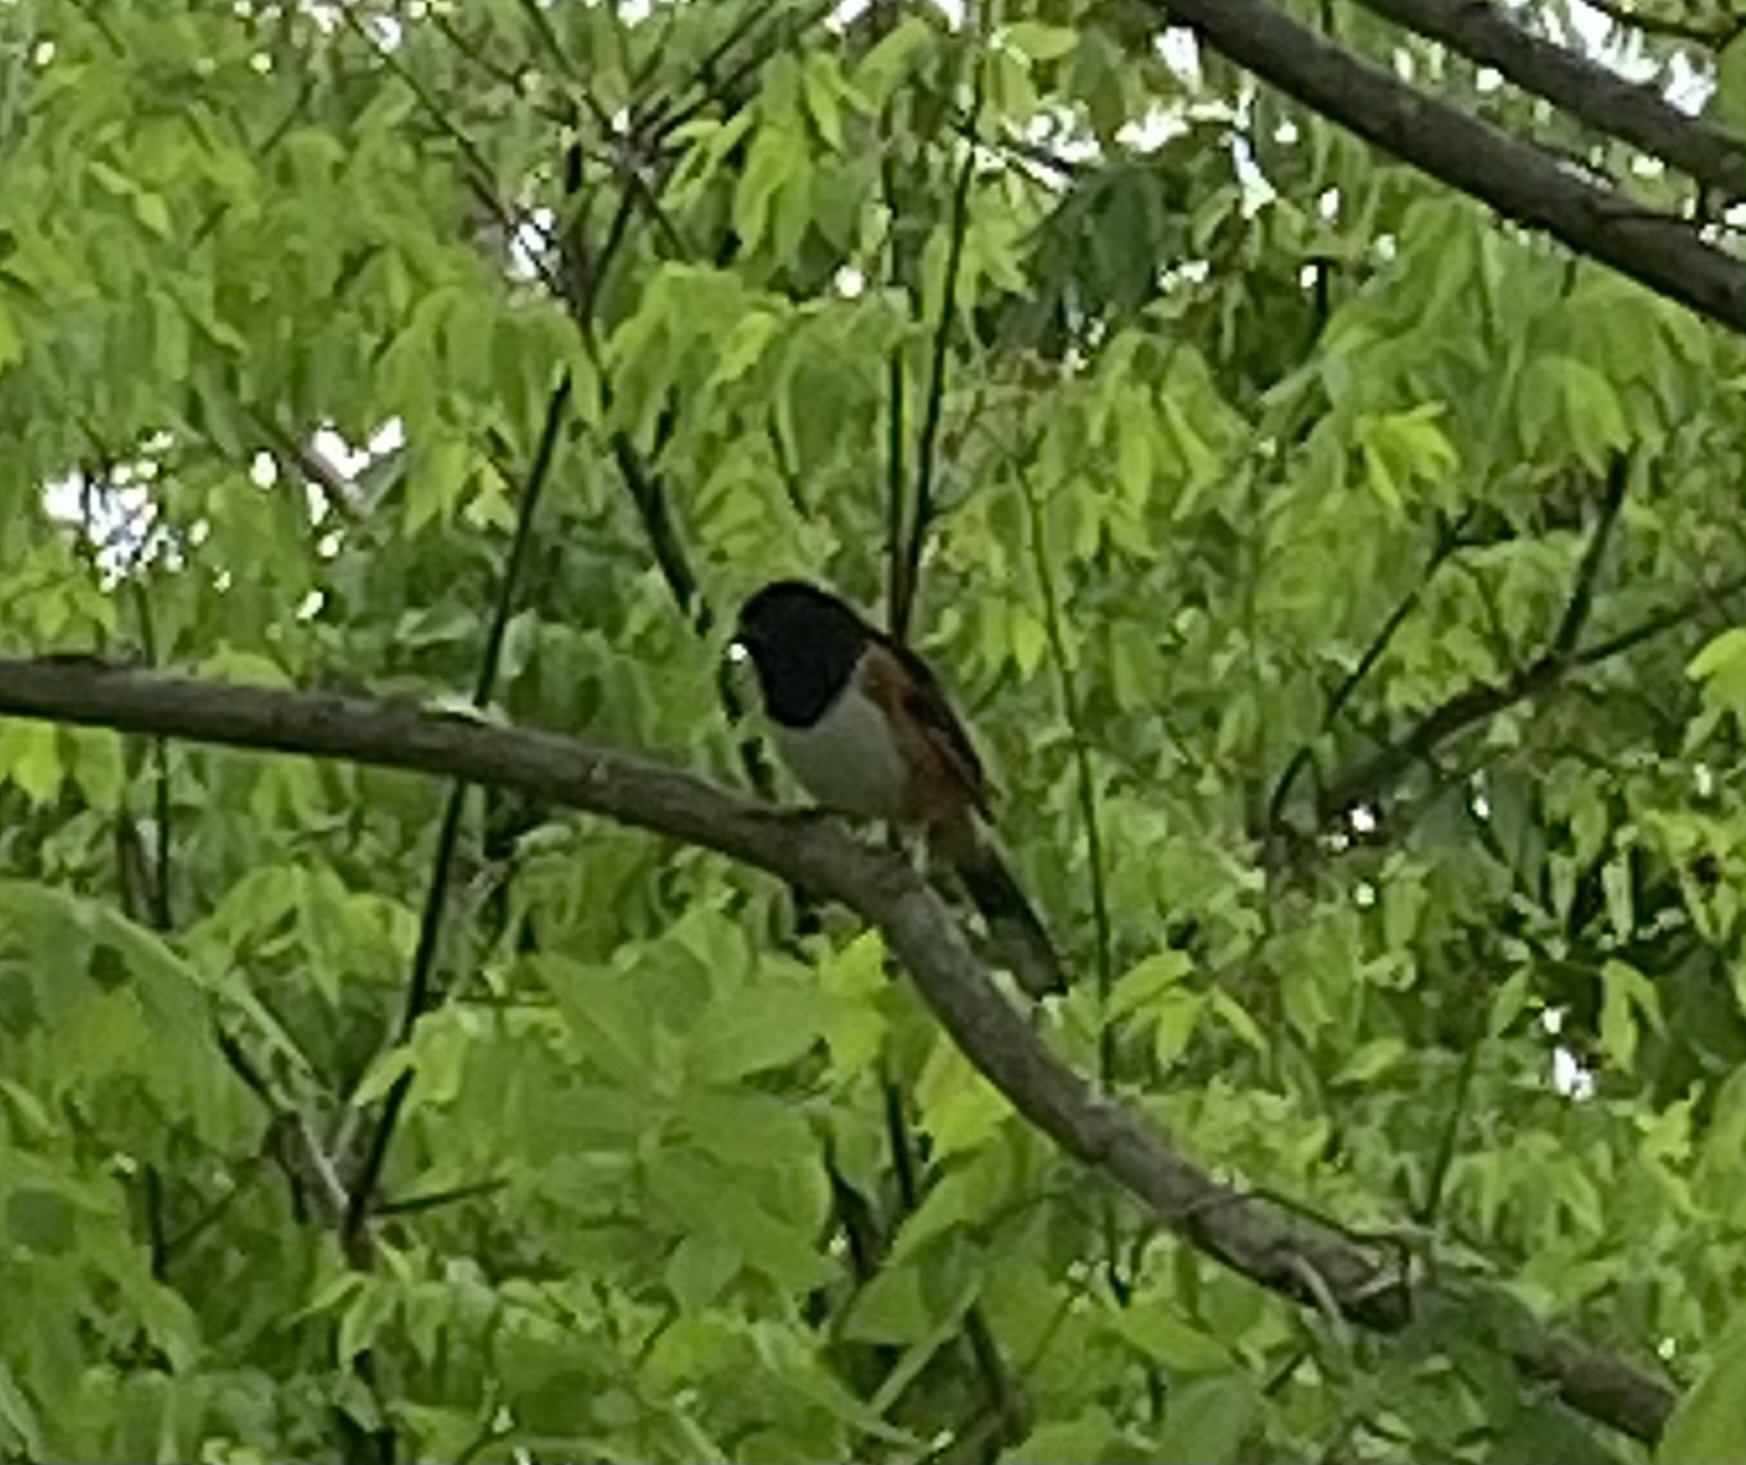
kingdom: Animalia
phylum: Chordata
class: Aves
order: Passeriformes
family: Passerellidae
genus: Pipilo
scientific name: Pipilo erythrophthalmus
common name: Eastern towhee
